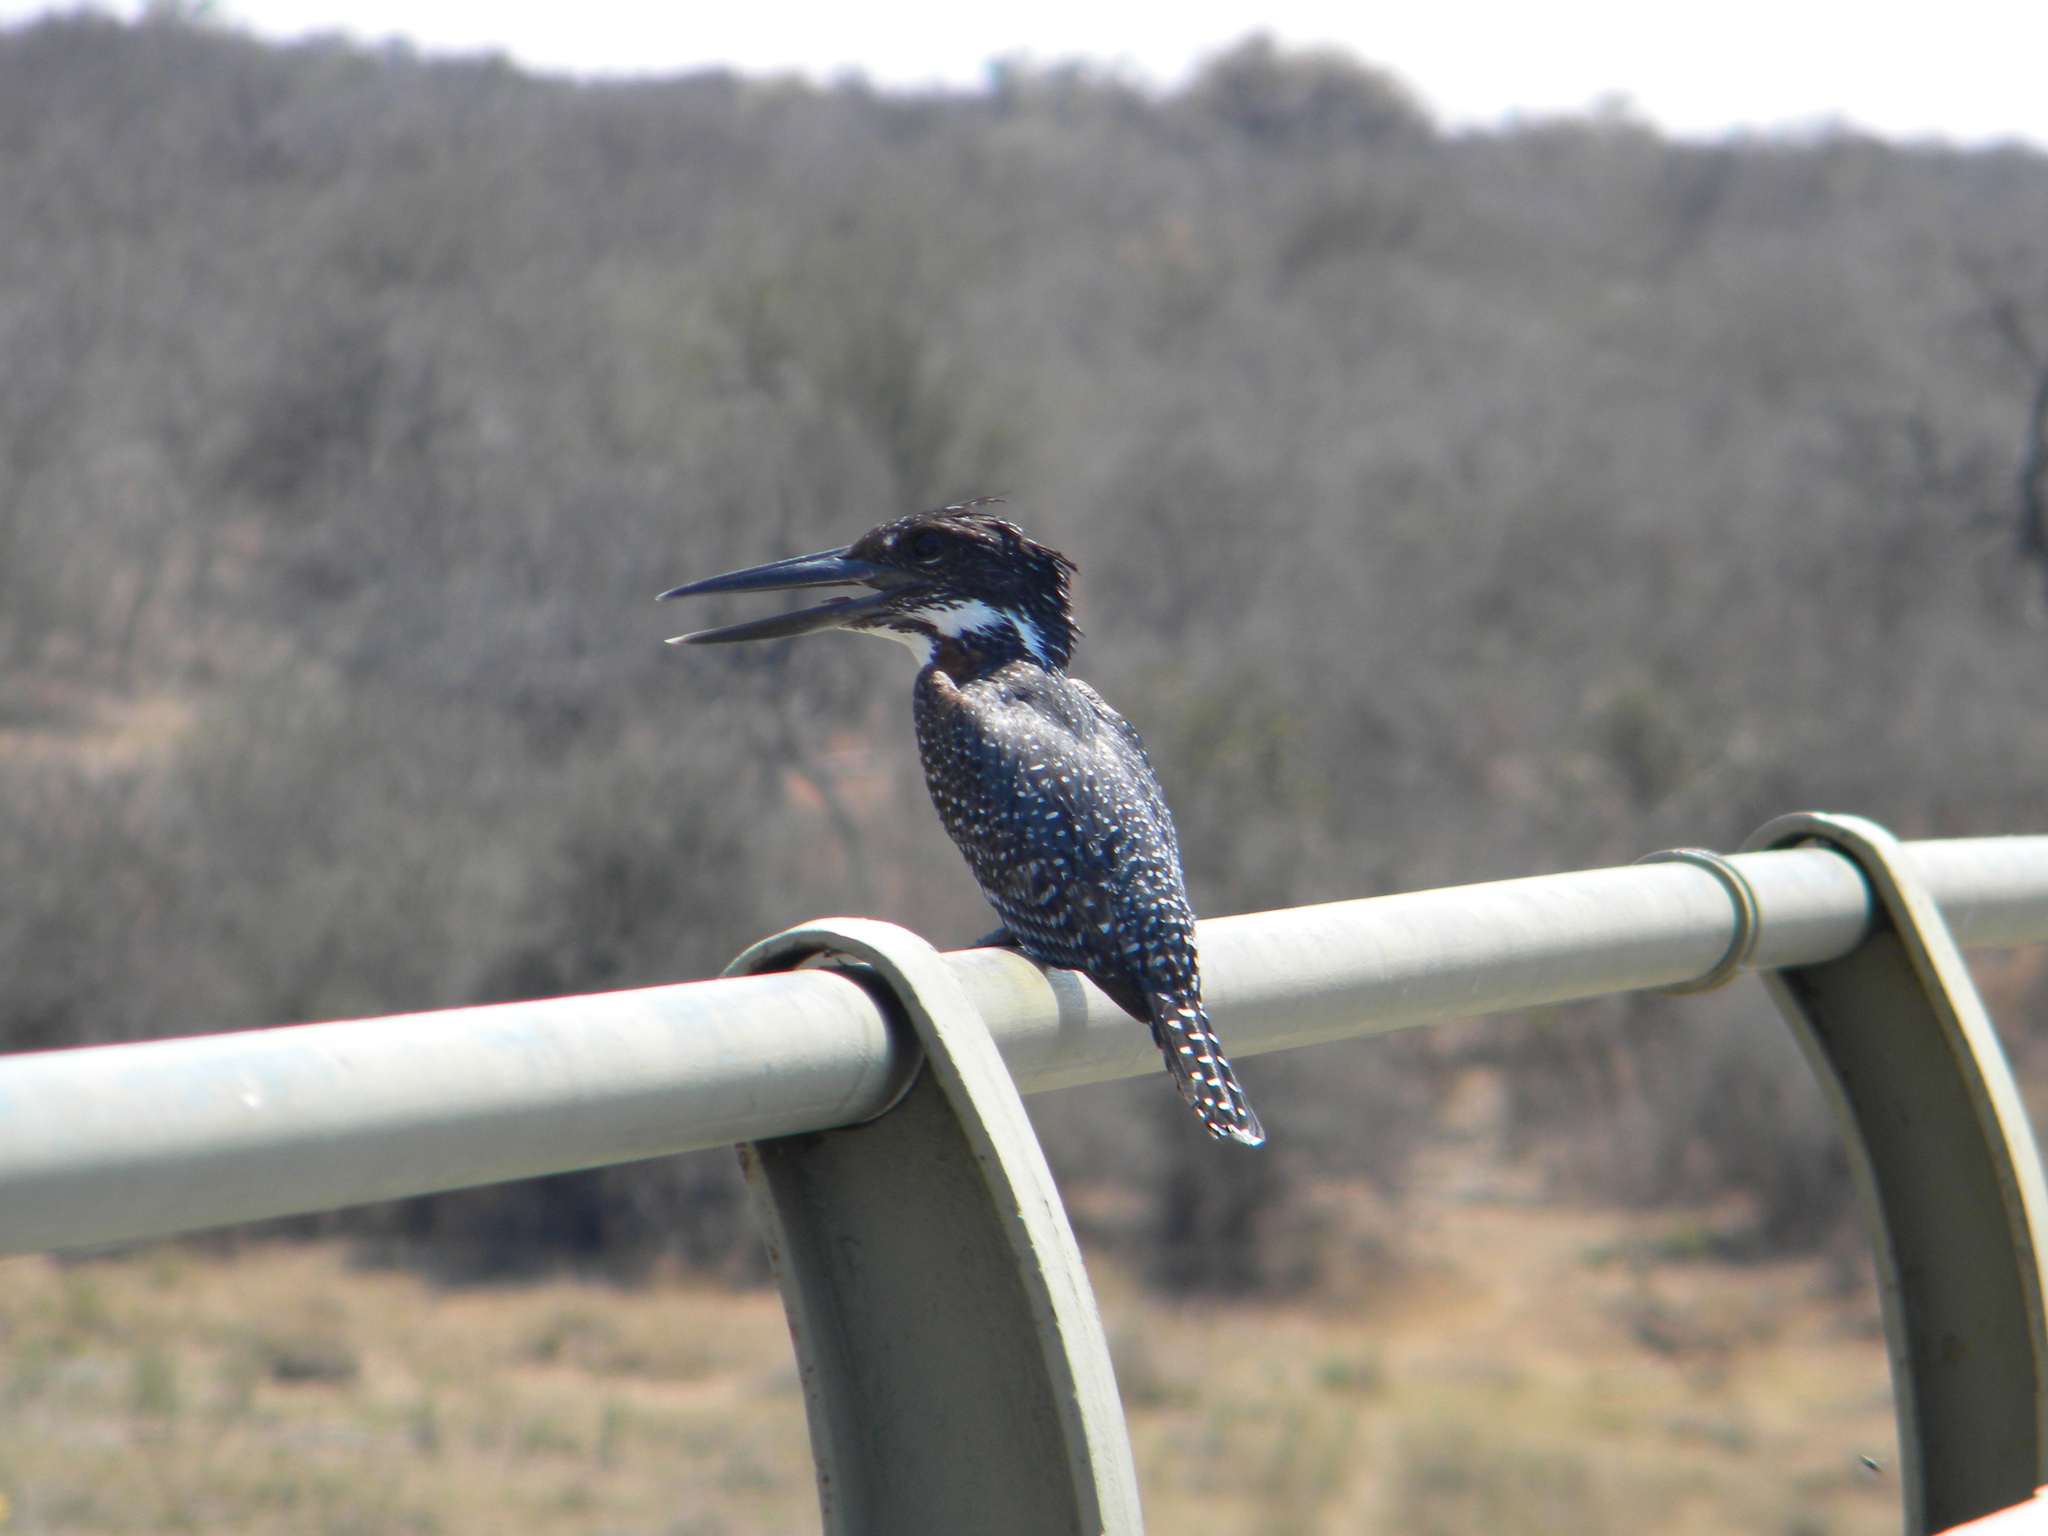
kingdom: Animalia
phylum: Chordata
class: Aves
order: Coraciiformes
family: Alcedinidae
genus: Megaceryle
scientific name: Megaceryle maxima
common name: Giant kingfisher
